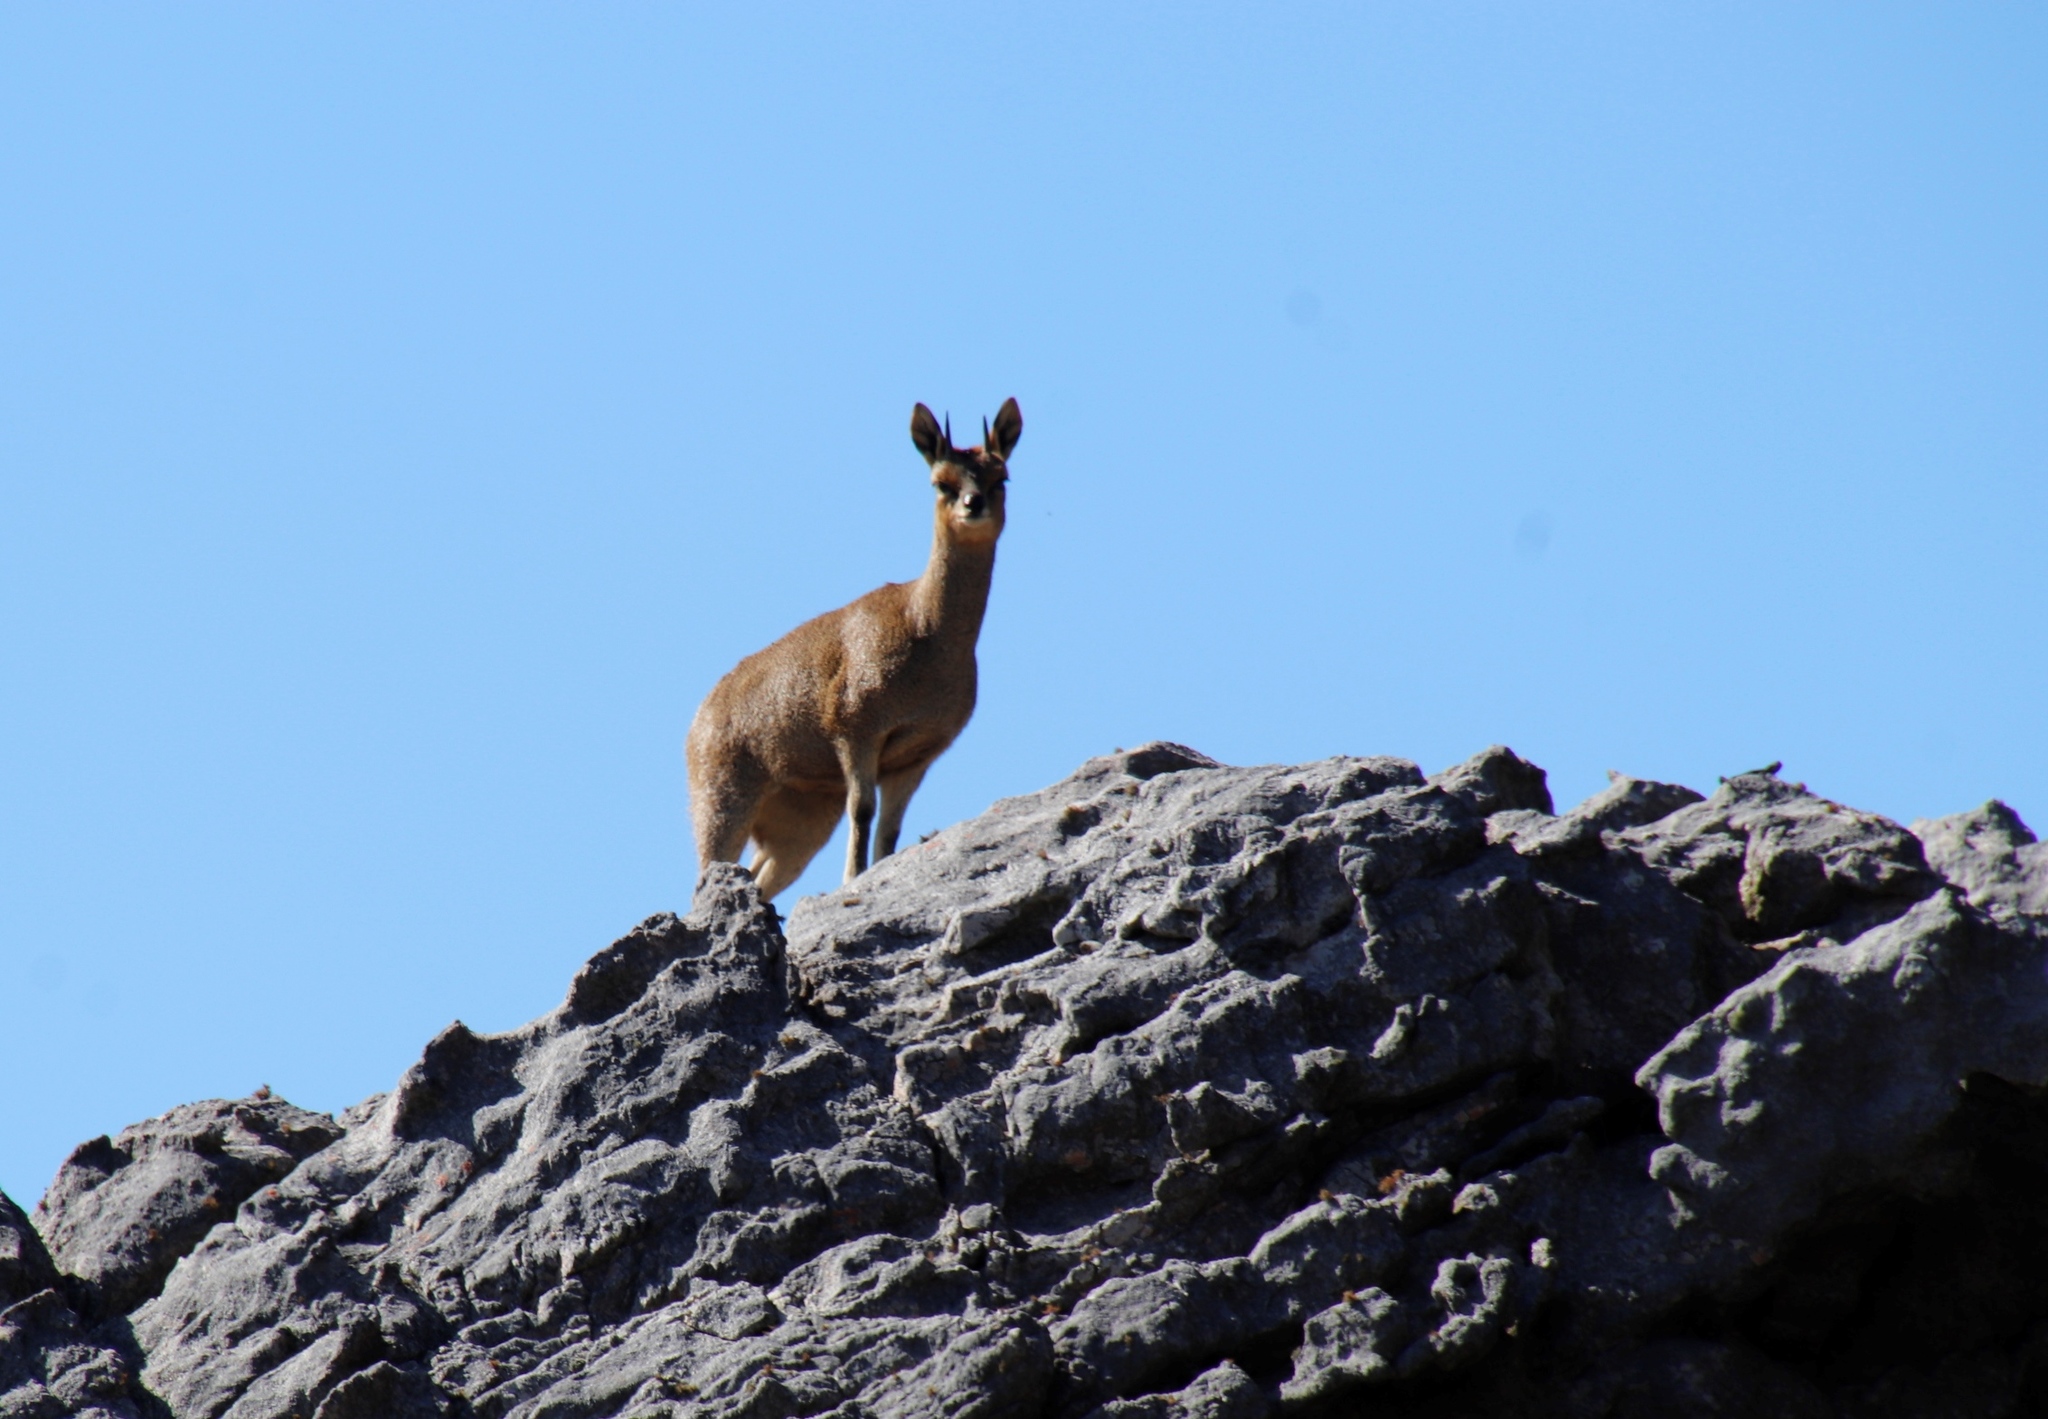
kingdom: Animalia
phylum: Chordata
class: Mammalia
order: Artiodactyla
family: Bovidae
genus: Oreotragus
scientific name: Oreotragus oreotragus
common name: Klipspringer
